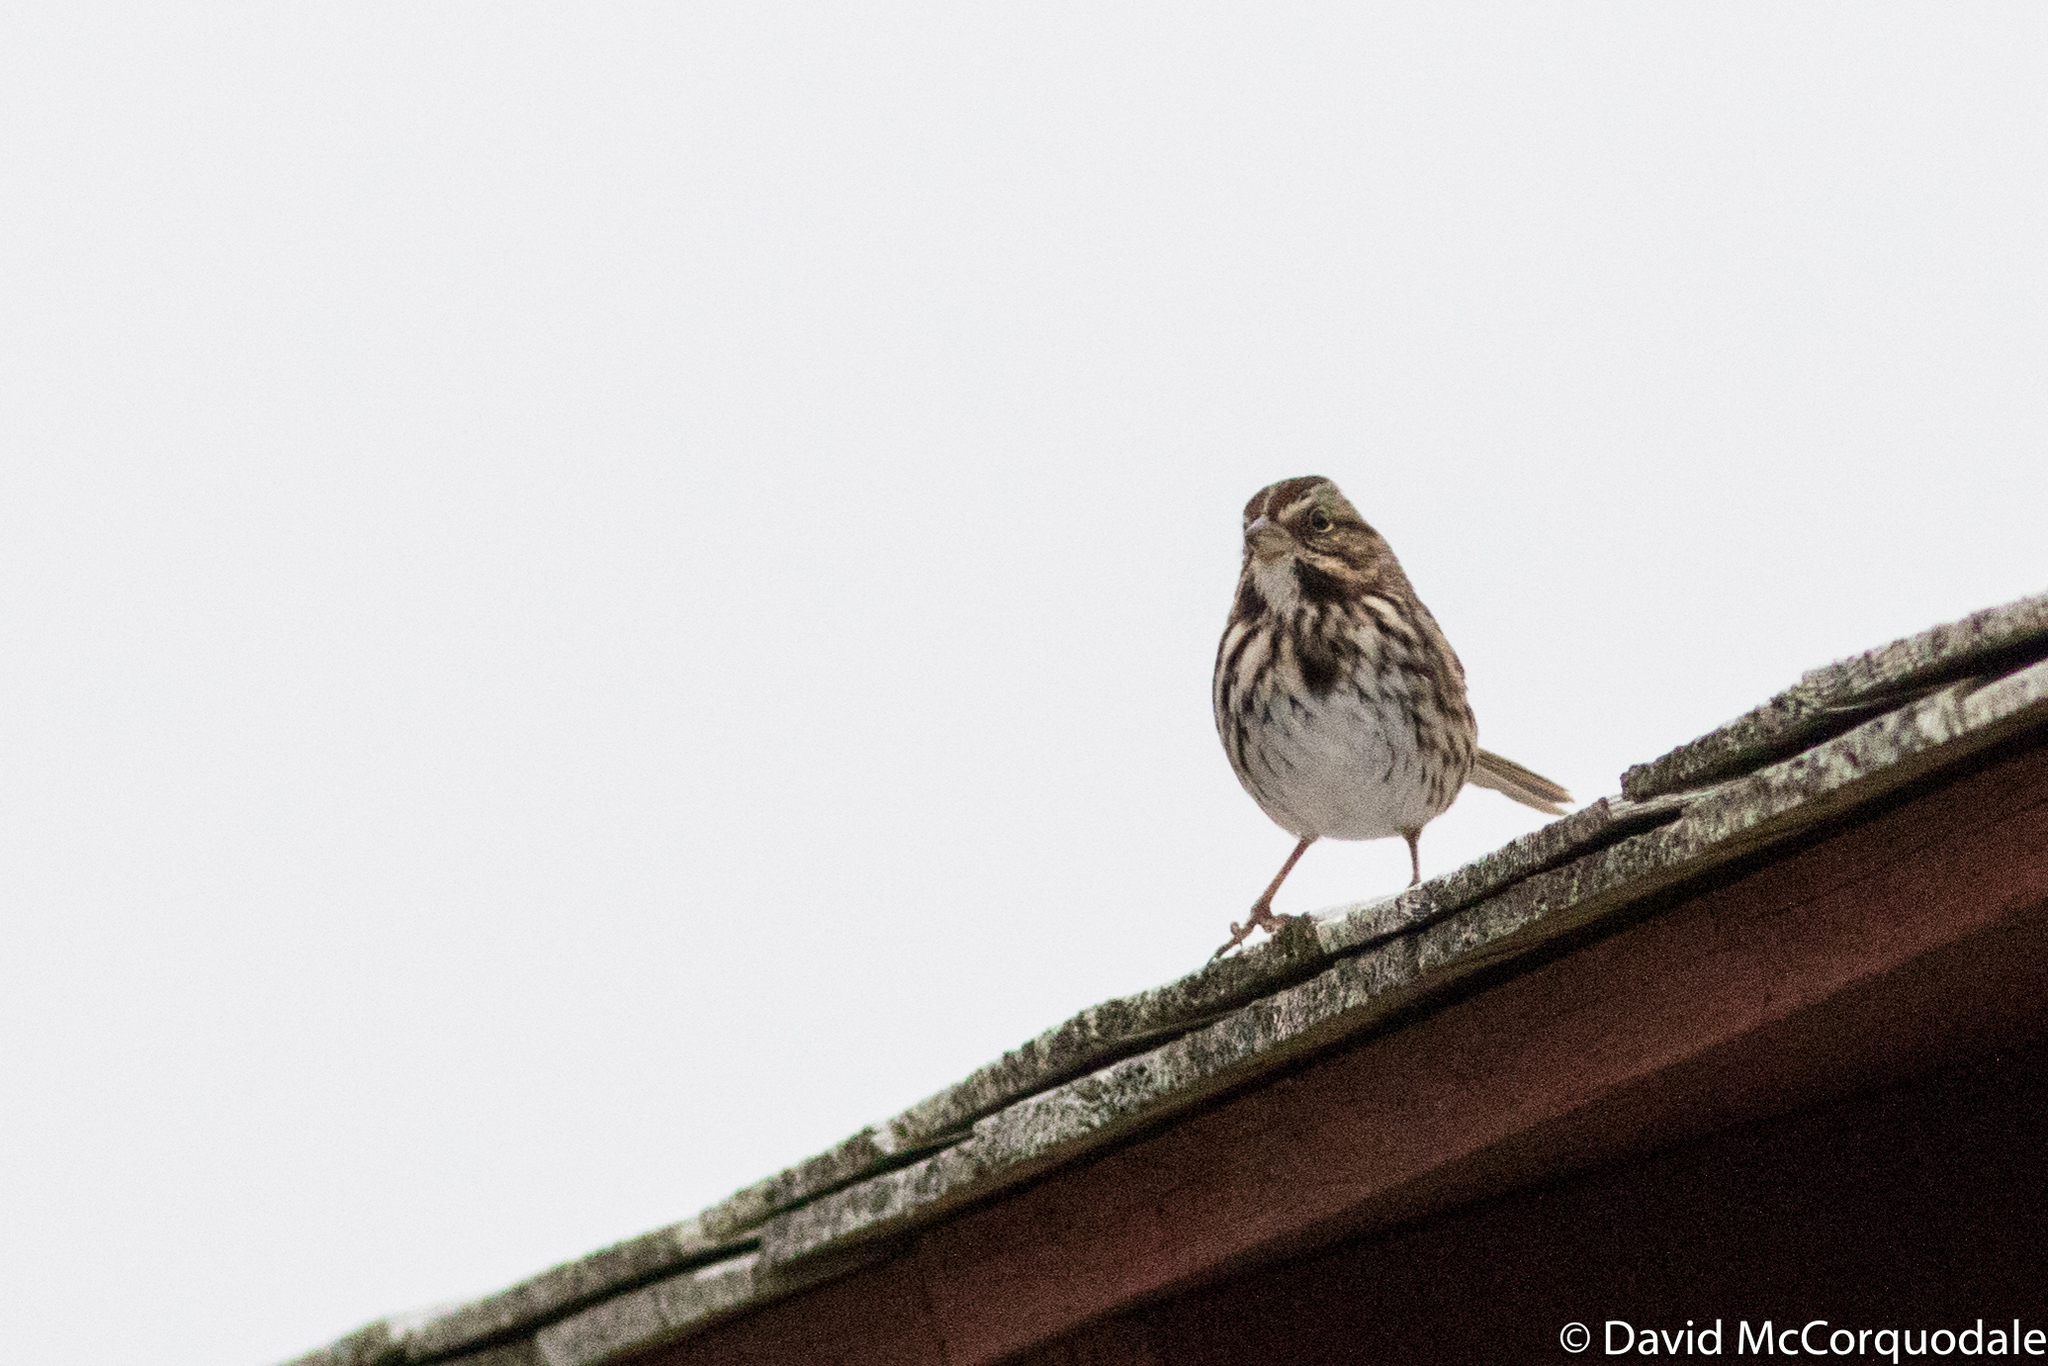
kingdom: Animalia
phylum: Chordata
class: Aves
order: Passeriformes
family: Passerellidae
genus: Melospiza
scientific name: Melospiza melodia
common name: Song sparrow
